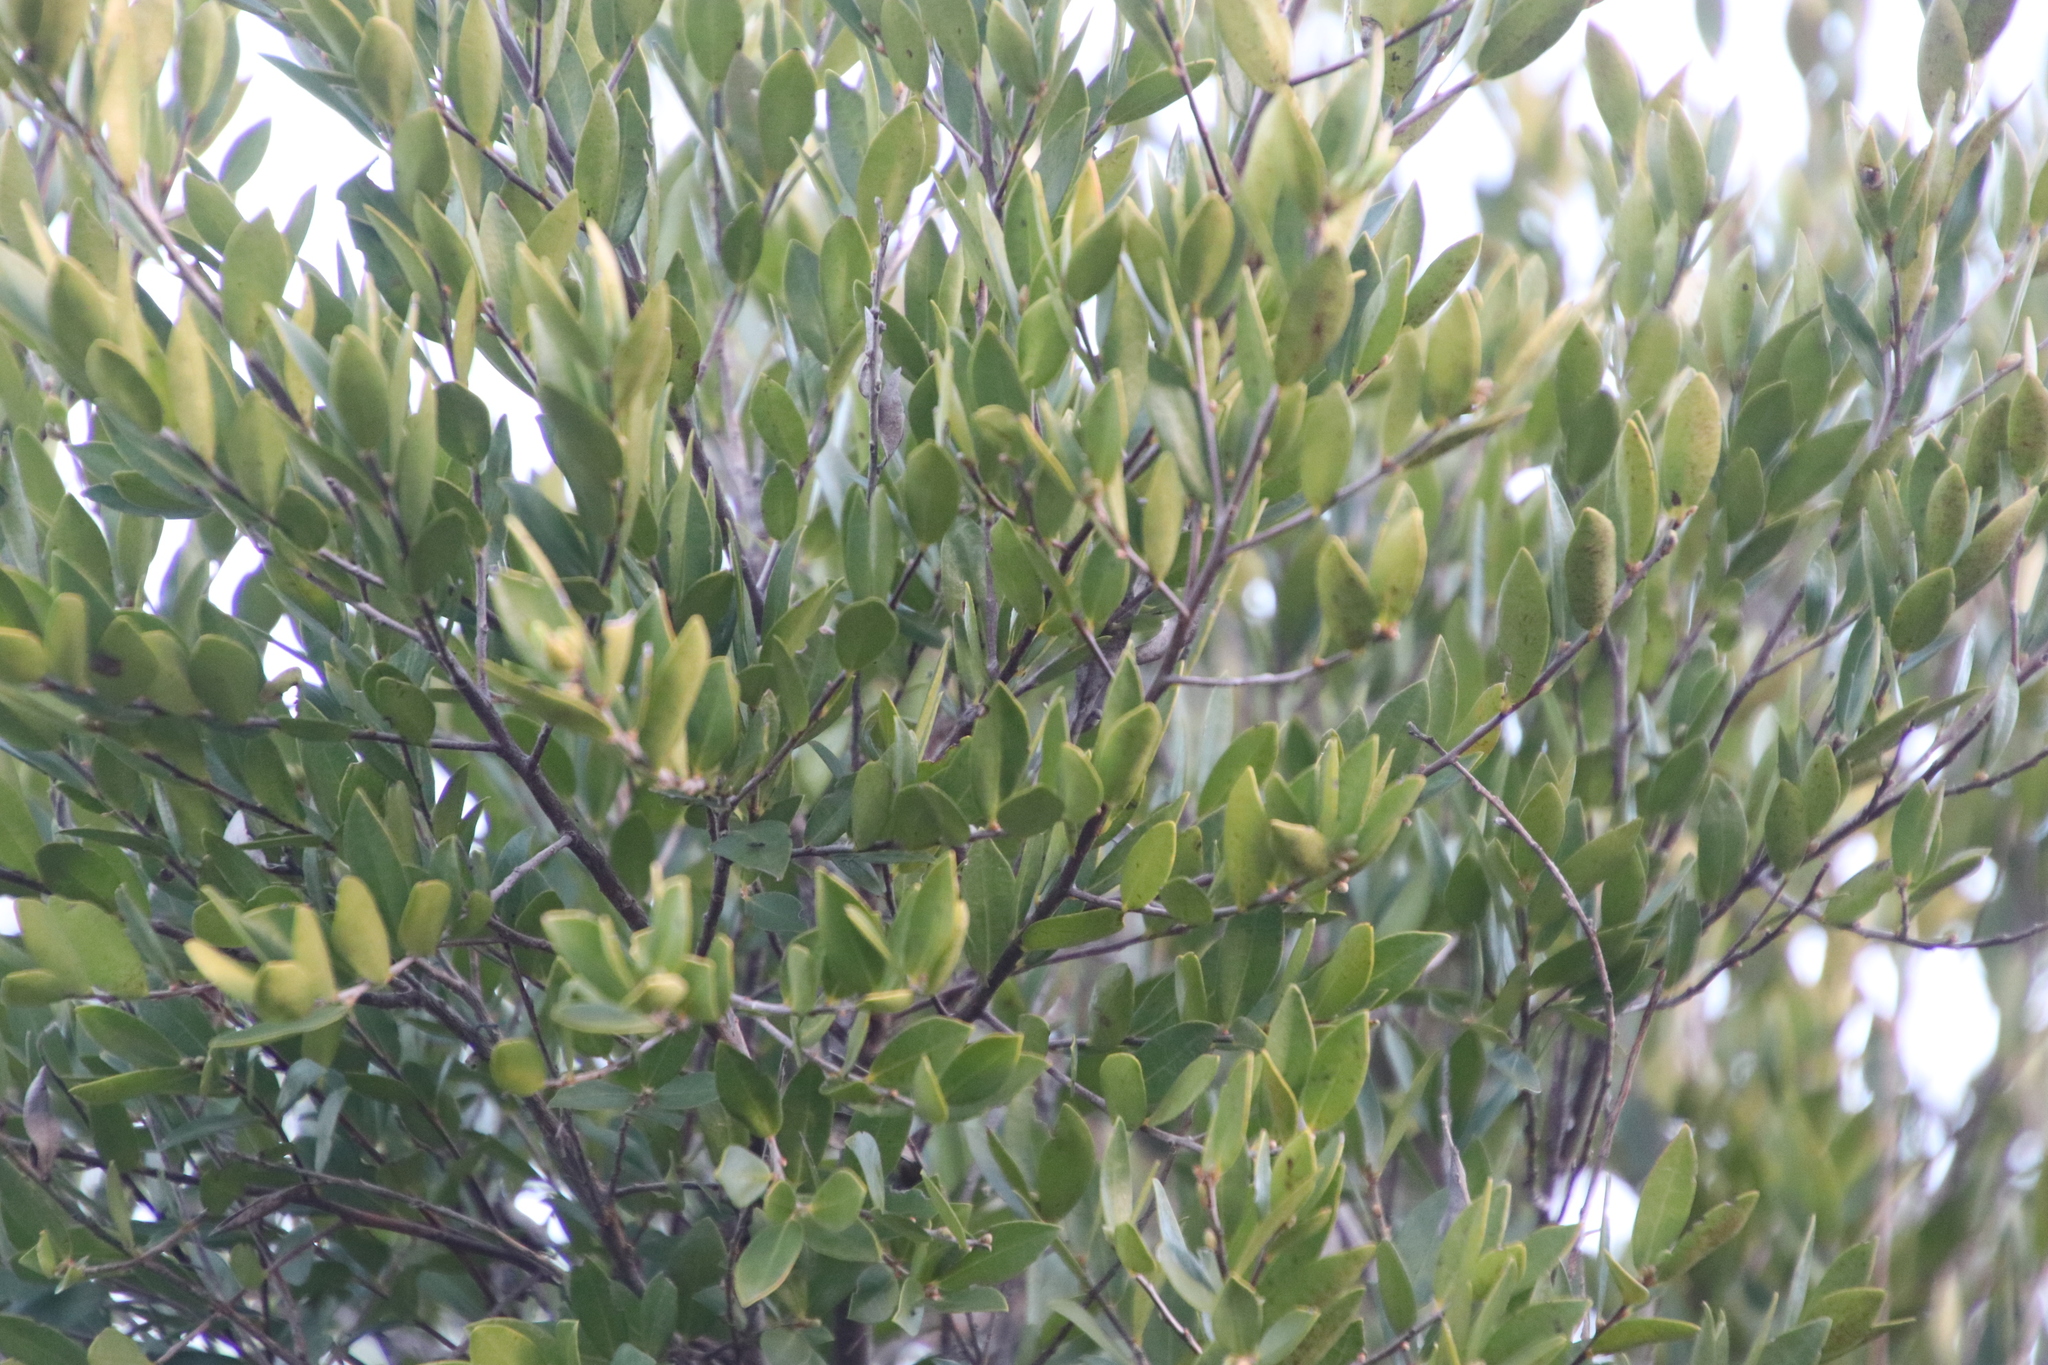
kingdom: Plantae
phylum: Tracheophyta
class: Magnoliopsida
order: Ericales
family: Ebenaceae
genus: Diospyros
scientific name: Diospyros glabra
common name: Fynbos star apple
